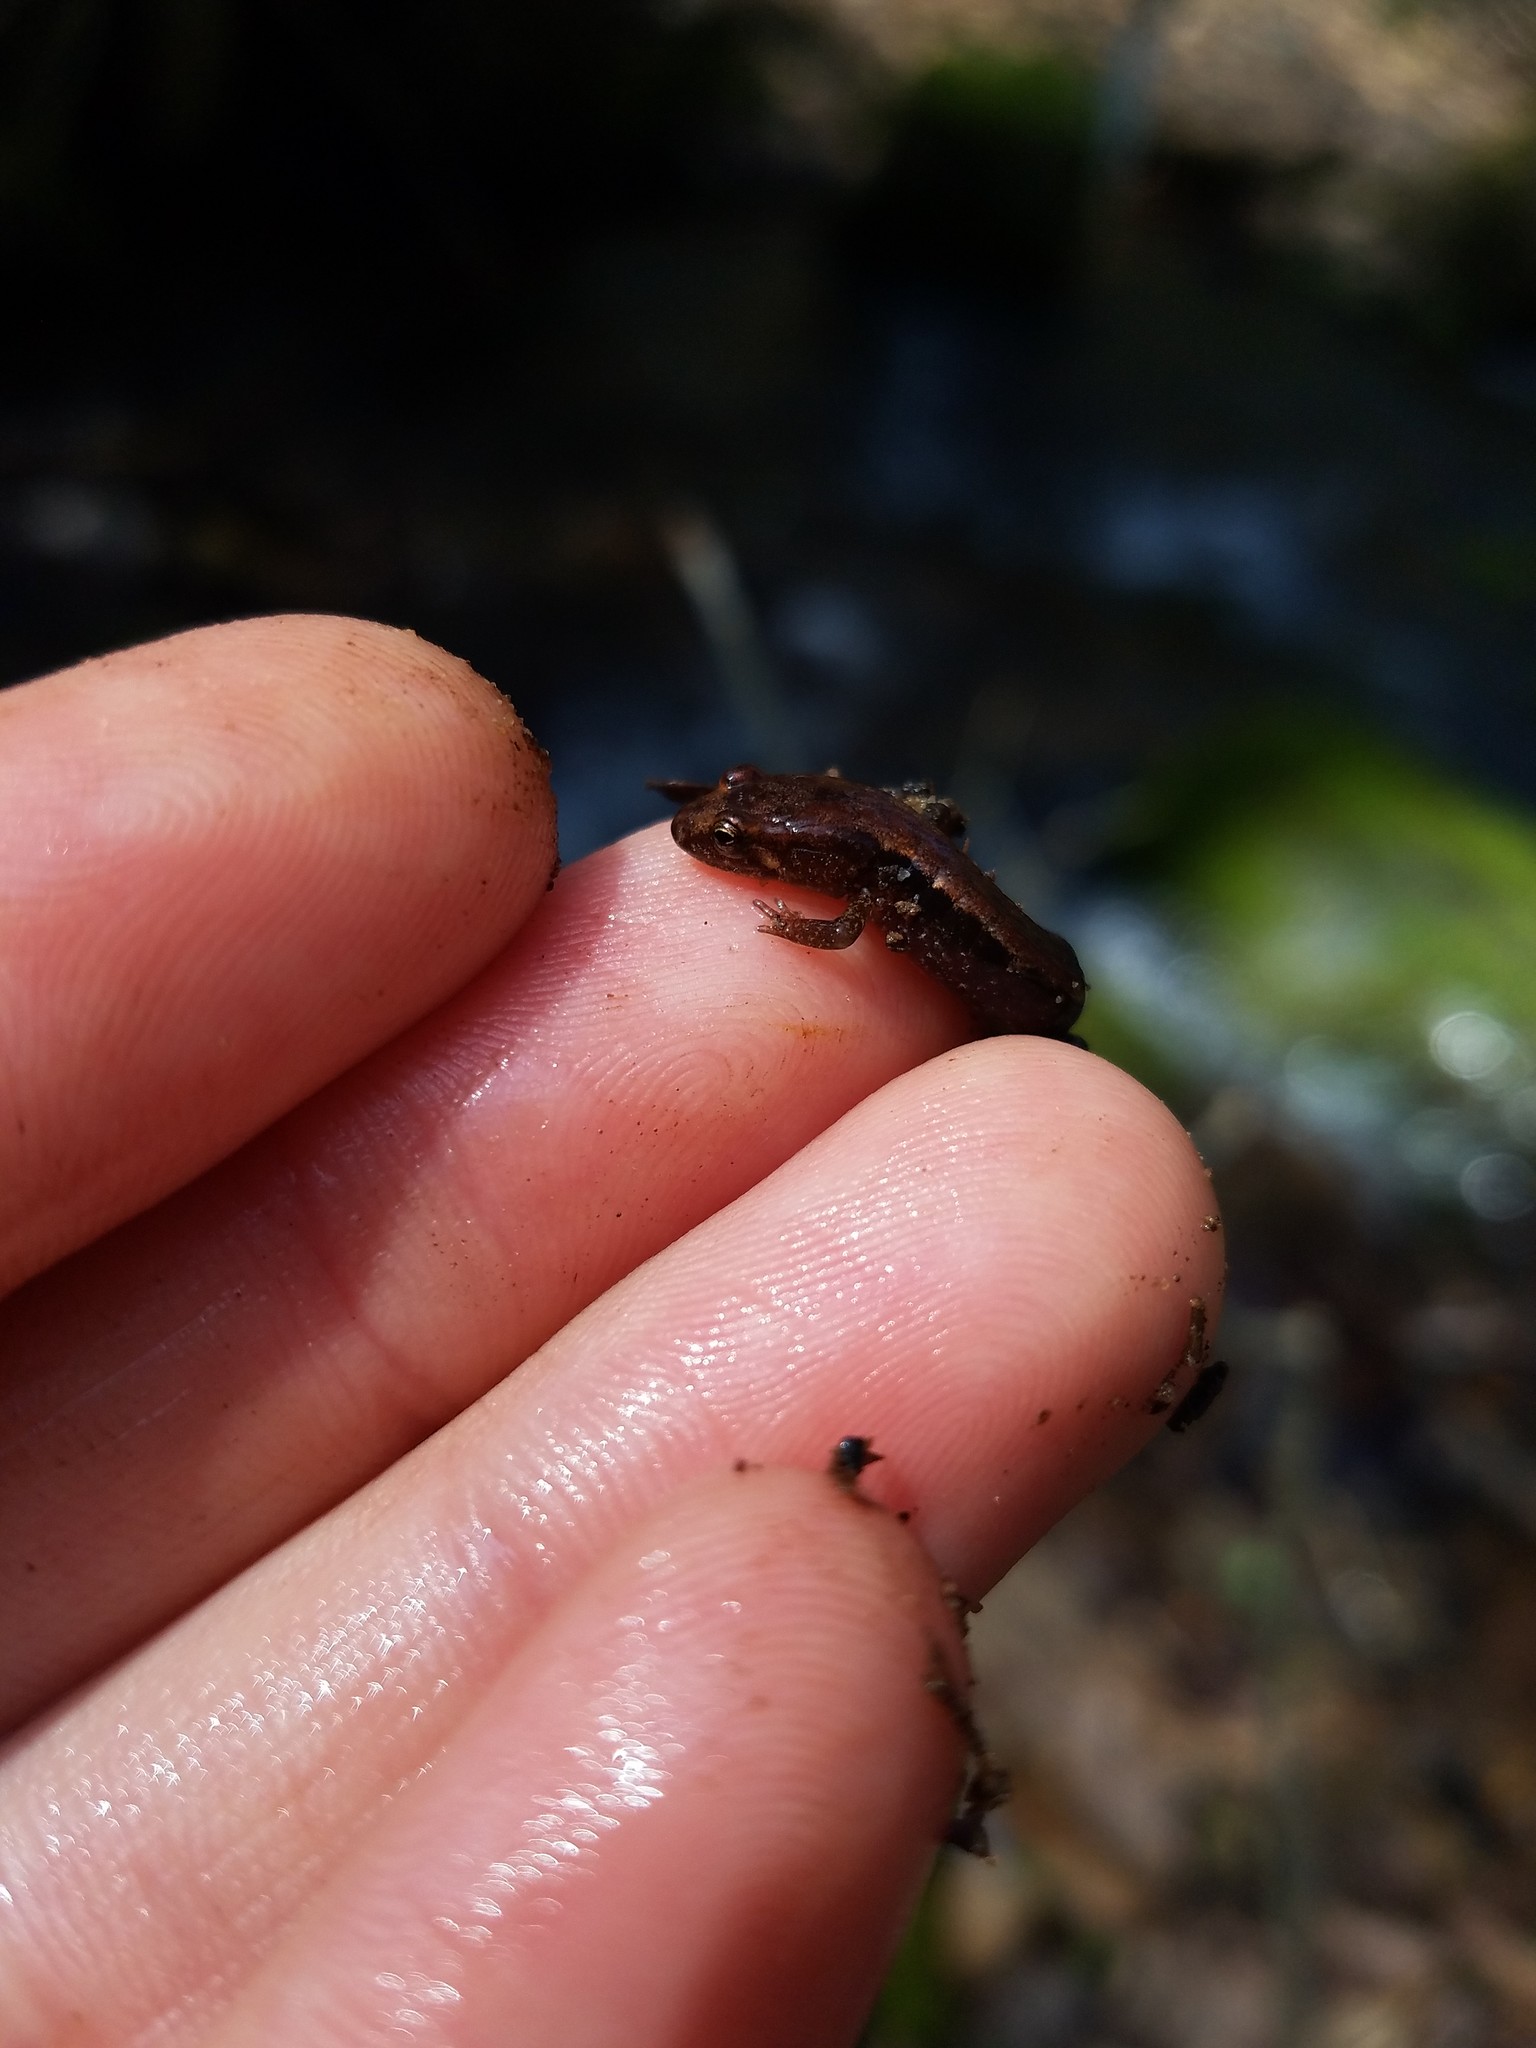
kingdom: Animalia
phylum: Chordata
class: Amphibia
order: Caudata
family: Plethodontidae
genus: Desmognathus
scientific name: Desmognathus ochrophaeus
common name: Allegheny mountain dusky salamander
